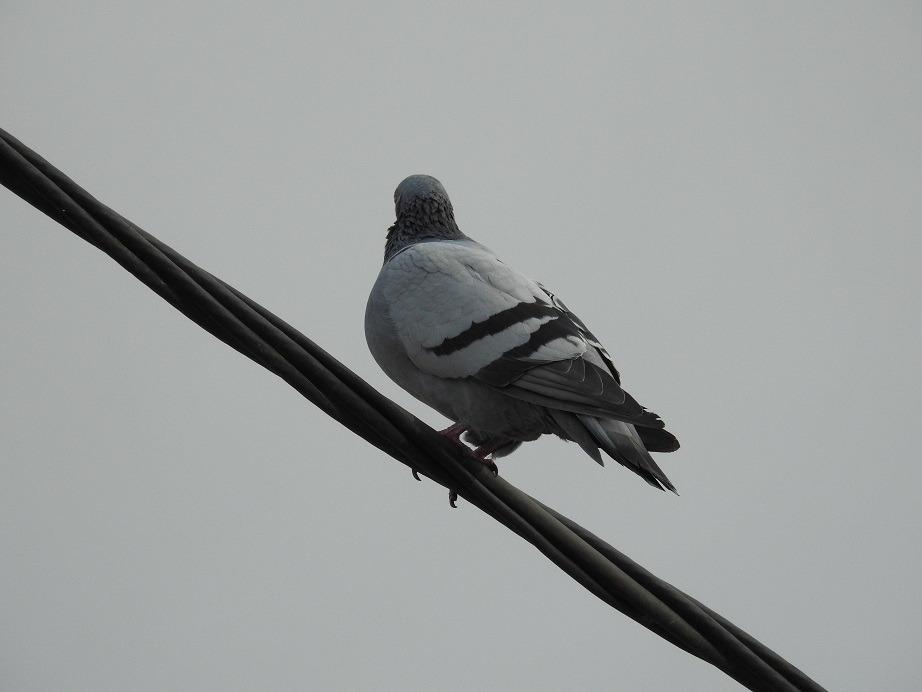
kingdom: Animalia
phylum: Chordata
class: Aves
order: Columbiformes
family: Columbidae
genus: Columba
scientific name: Columba livia
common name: Rock pigeon
